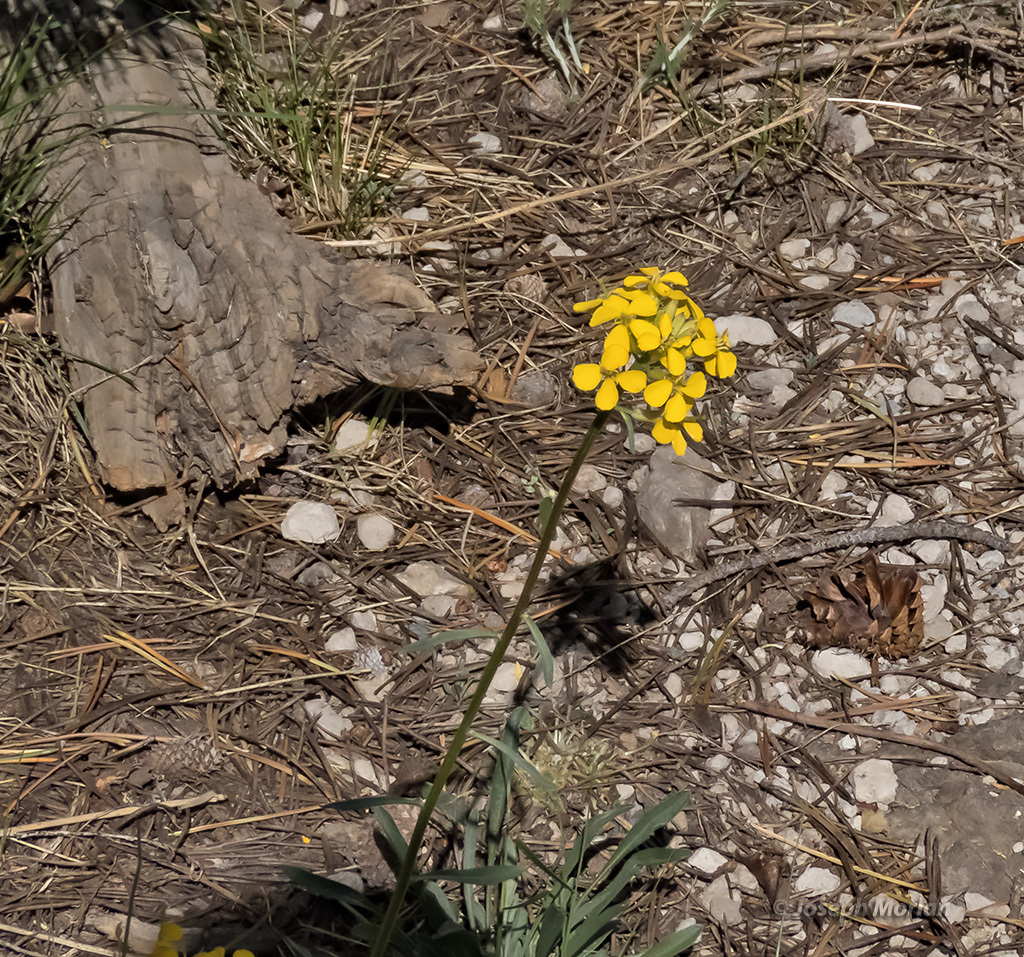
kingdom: Plantae
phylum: Tracheophyta
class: Magnoliopsida
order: Brassicales
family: Brassicaceae
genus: Erysimum
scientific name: Erysimum capitatum
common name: Western wallflower
